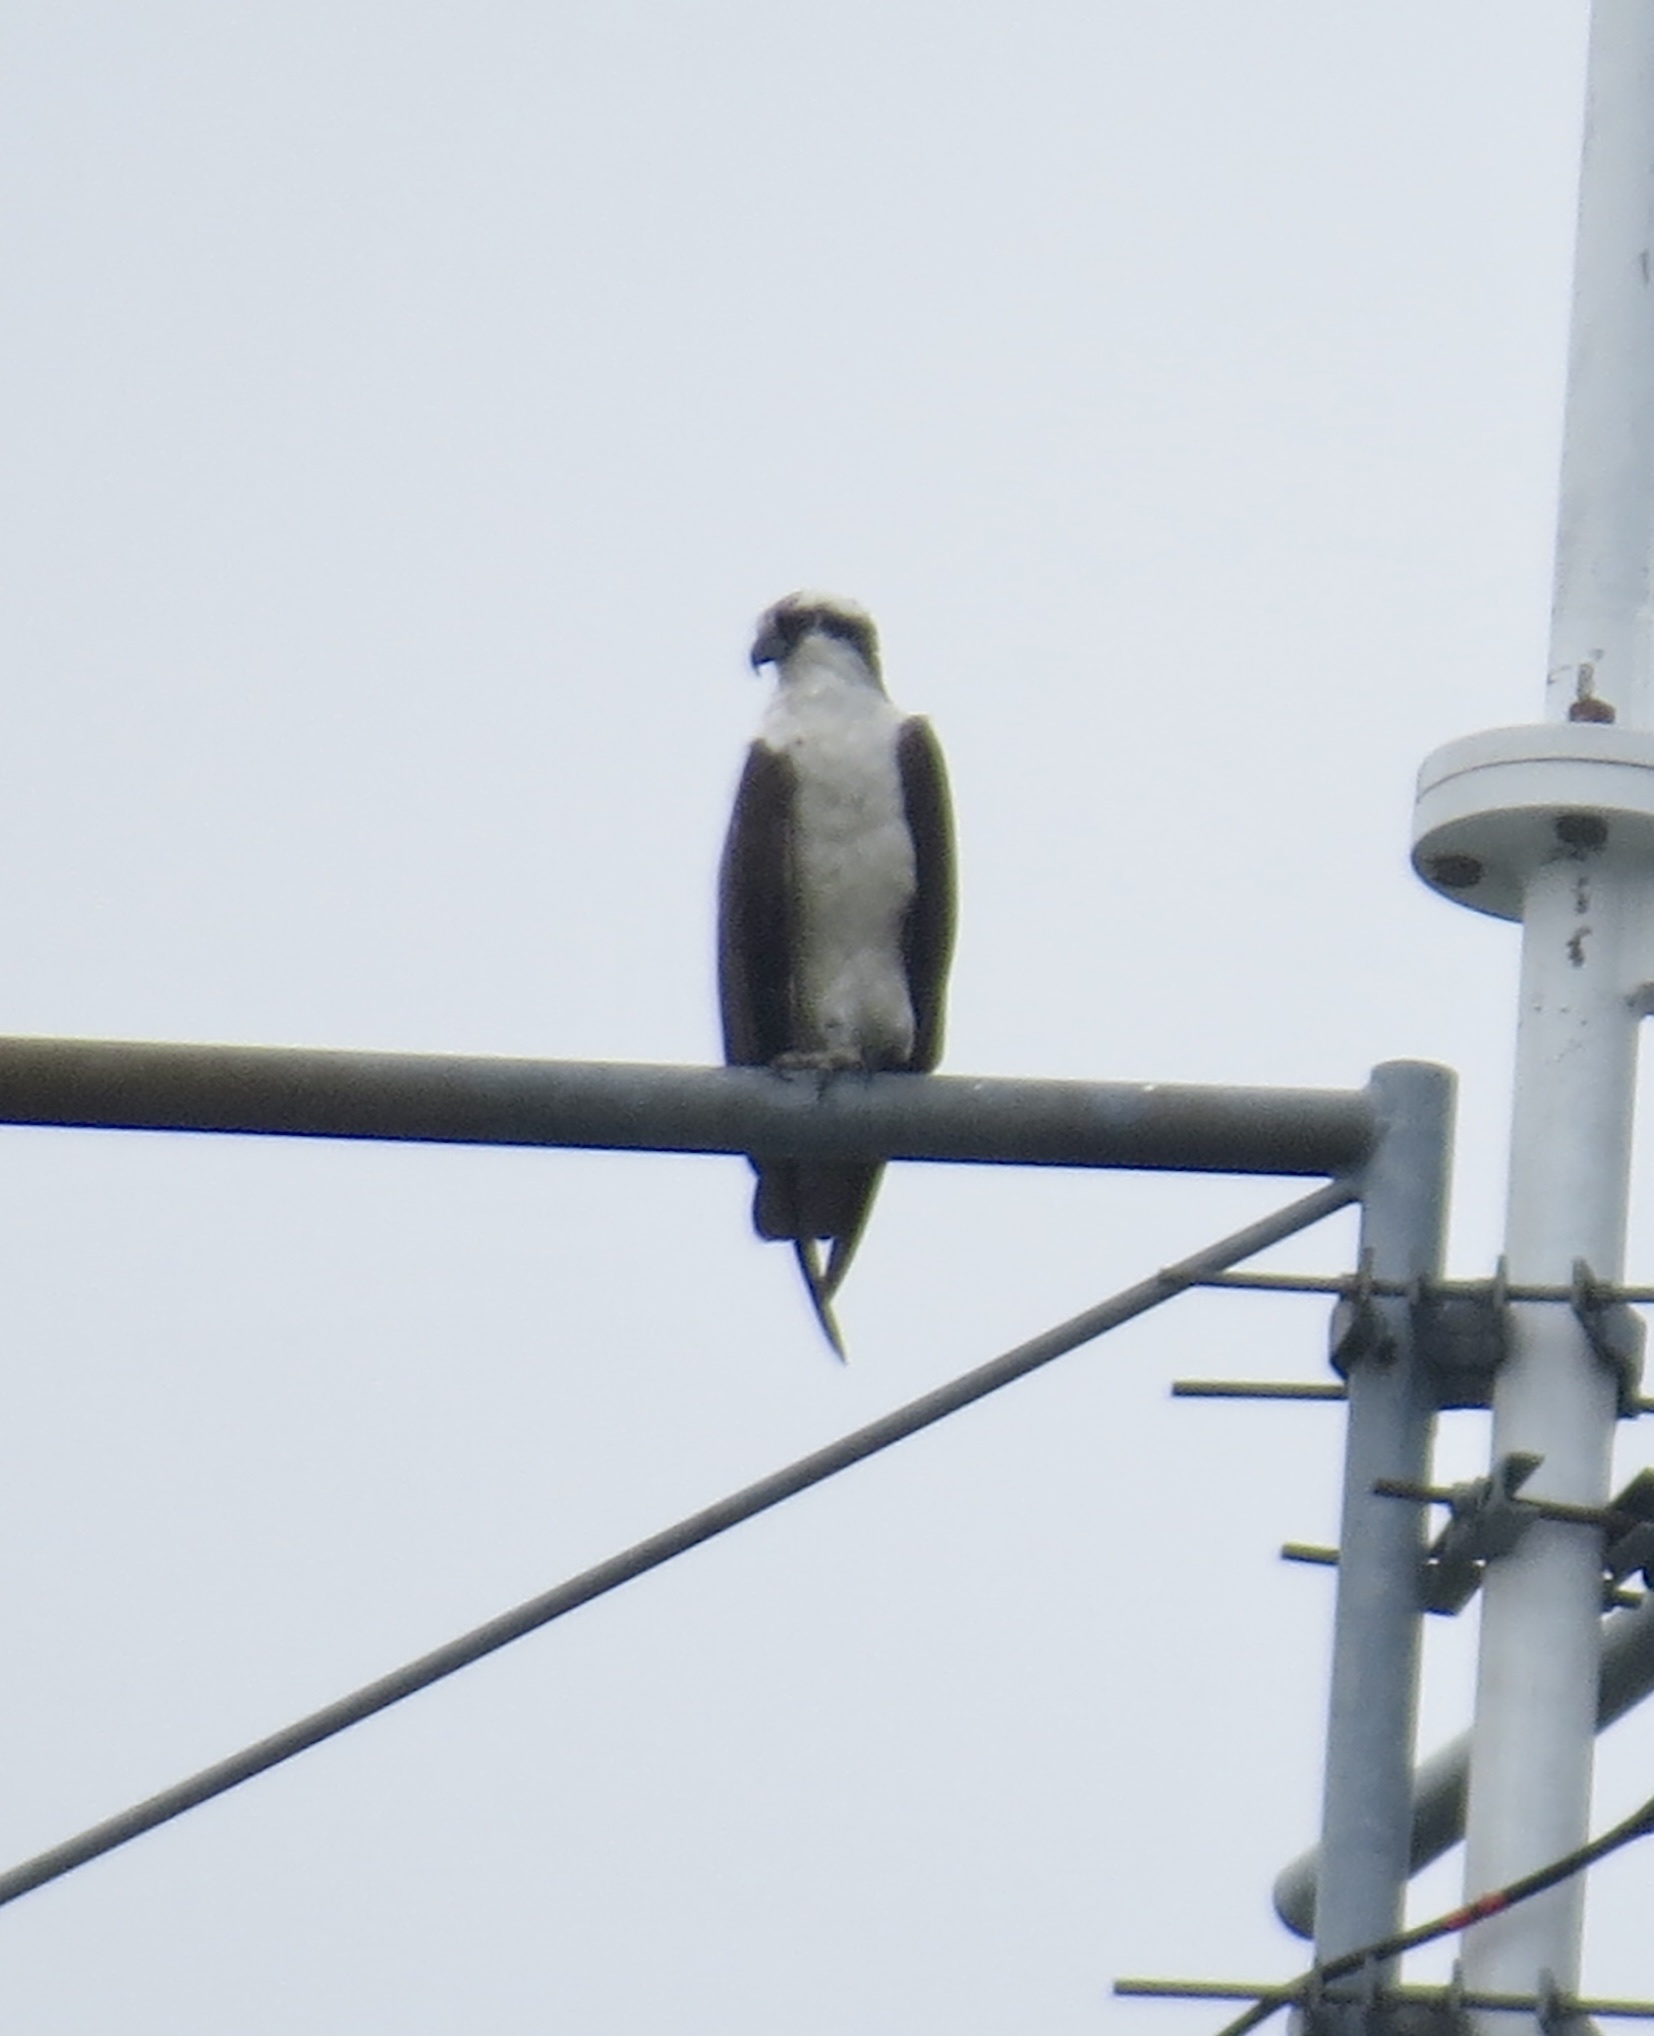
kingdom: Animalia
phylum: Chordata
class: Aves
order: Accipitriformes
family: Pandionidae
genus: Pandion
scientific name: Pandion haliaetus
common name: Osprey
